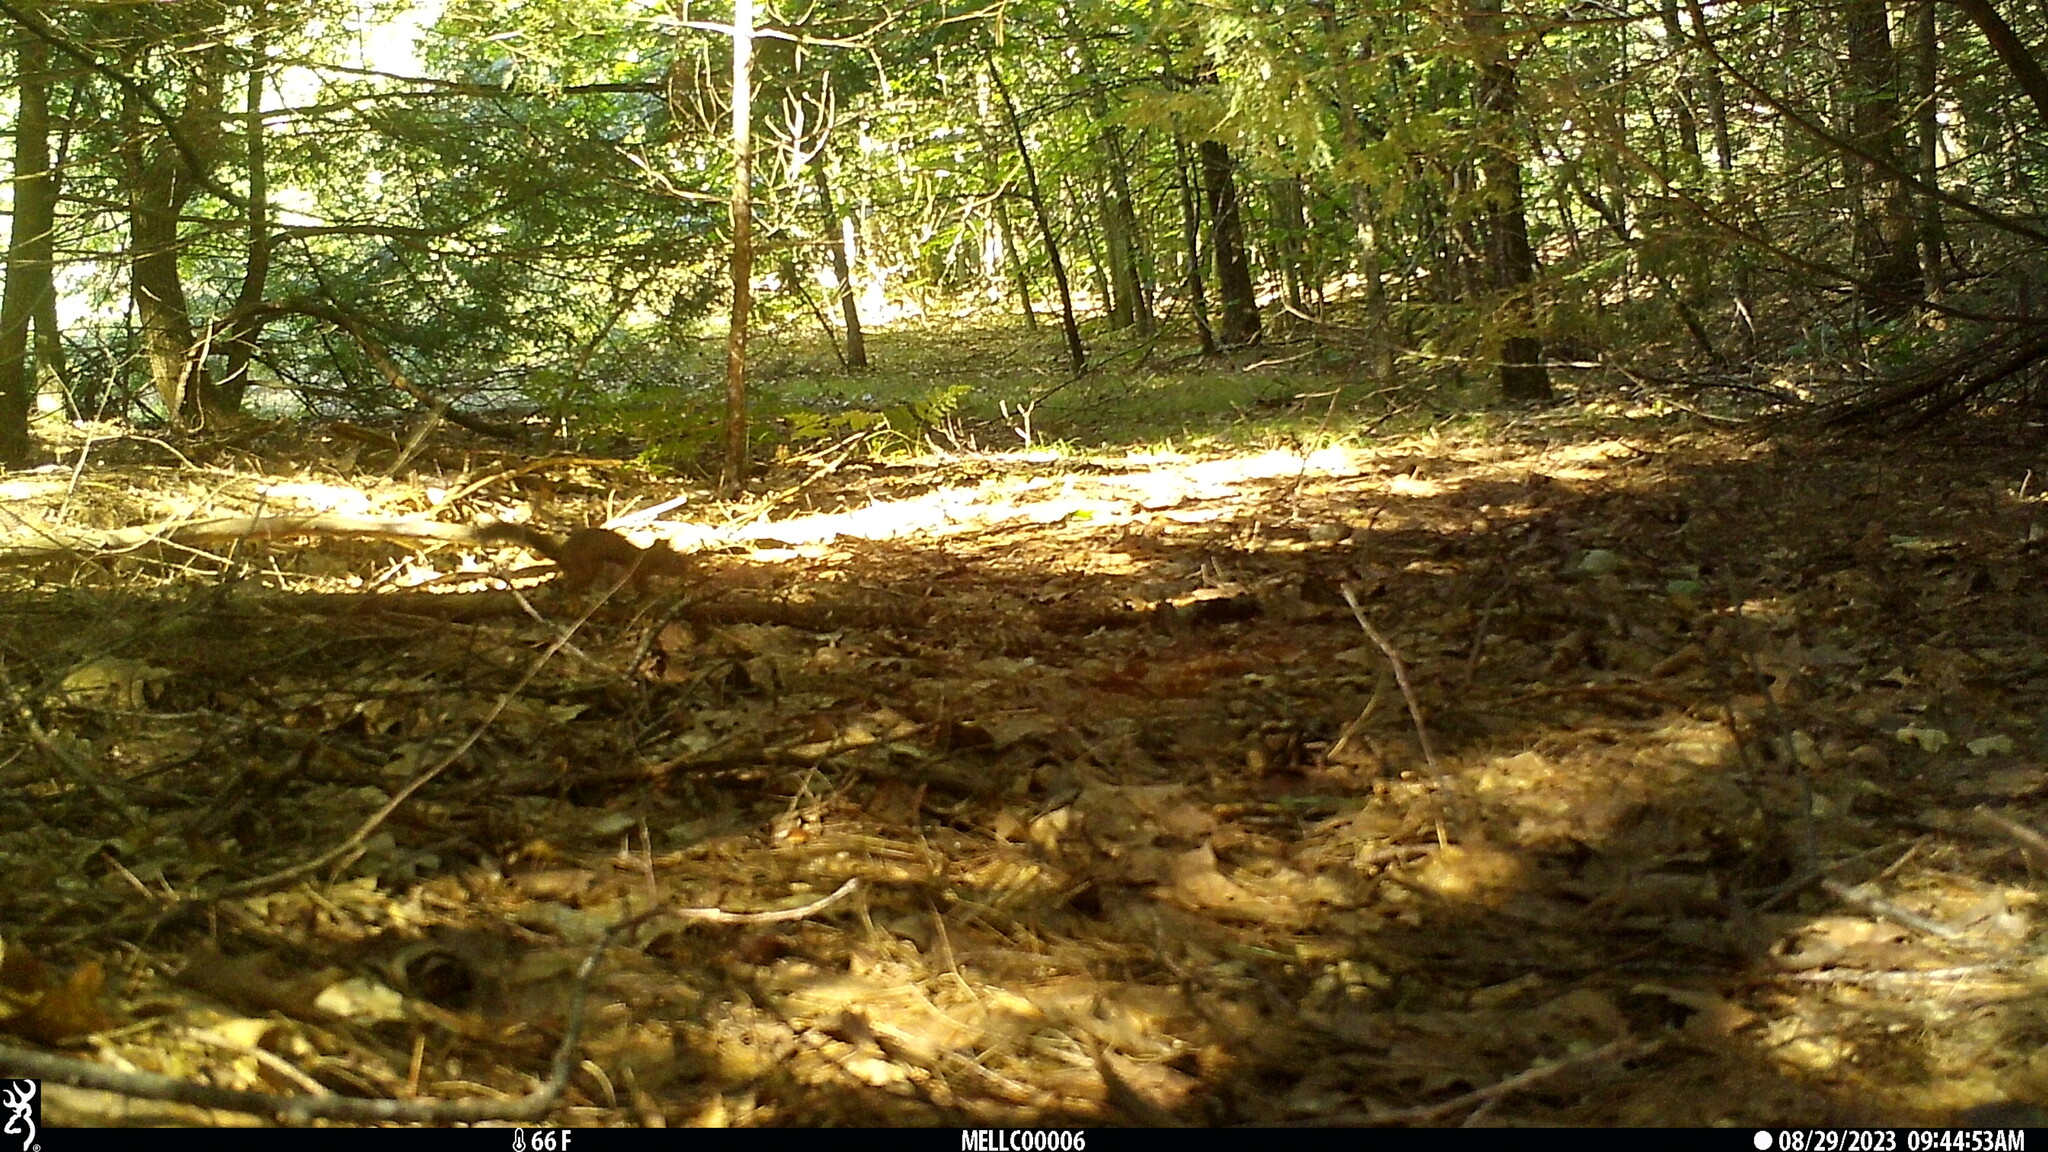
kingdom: Animalia
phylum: Chordata
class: Mammalia
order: Rodentia
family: Sciuridae
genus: Tamiasciurus
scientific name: Tamiasciurus hudsonicus
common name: Red squirrel
